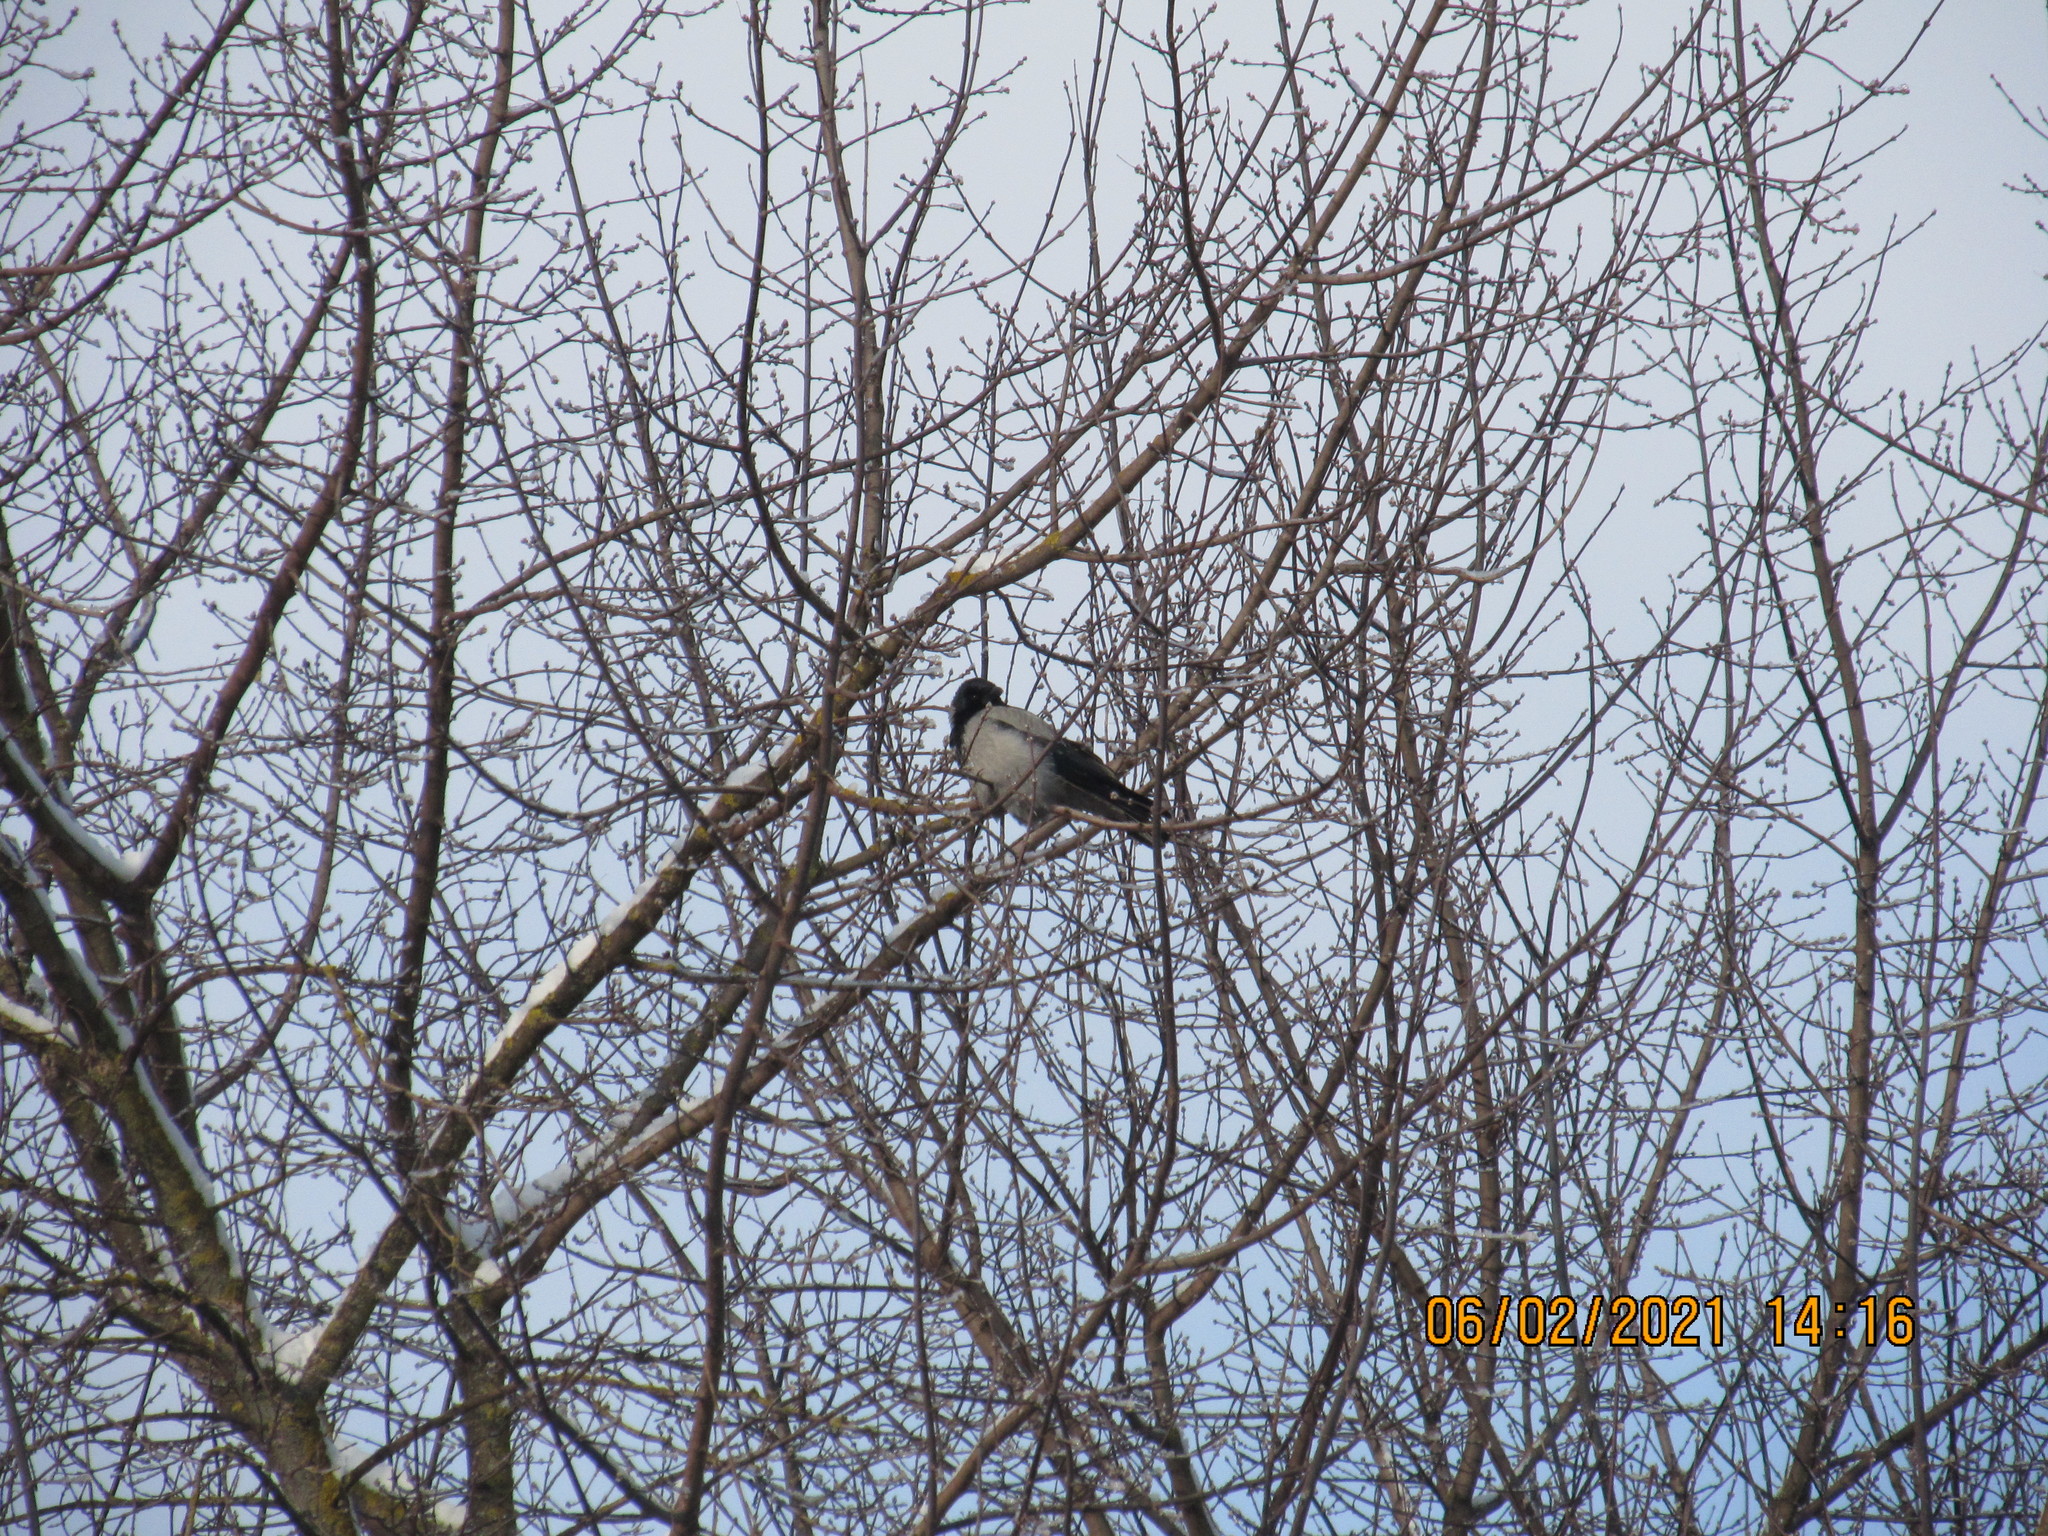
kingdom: Animalia
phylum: Chordata
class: Aves
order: Passeriformes
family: Corvidae
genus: Corvus
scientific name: Corvus cornix
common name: Hooded crow
